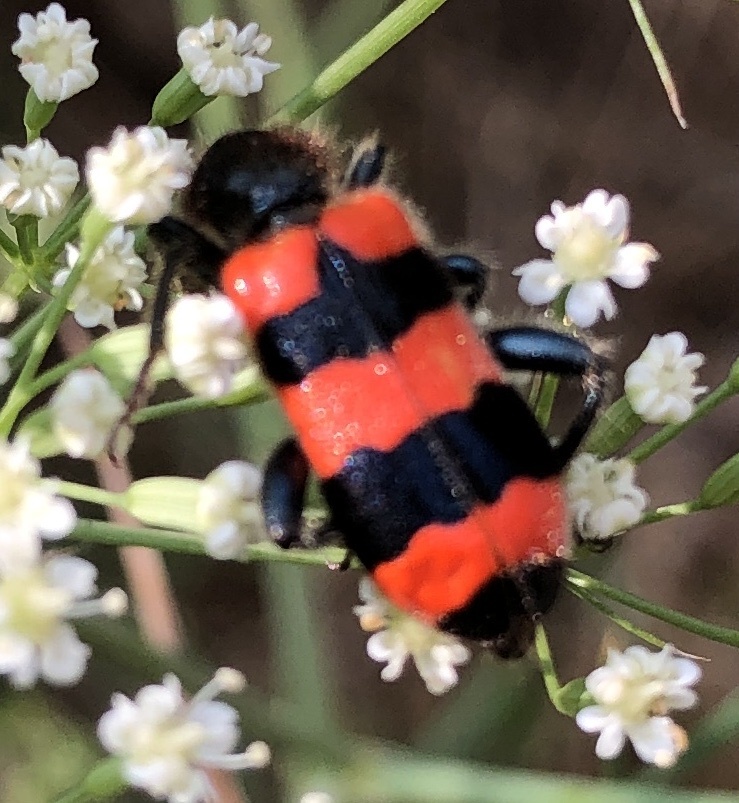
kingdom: Animalia
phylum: Arthropoda
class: Insecta
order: Coleoptera
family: Cleridae
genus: Trichodes
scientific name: Trichodes apiarius
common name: Bee-eating beetle
